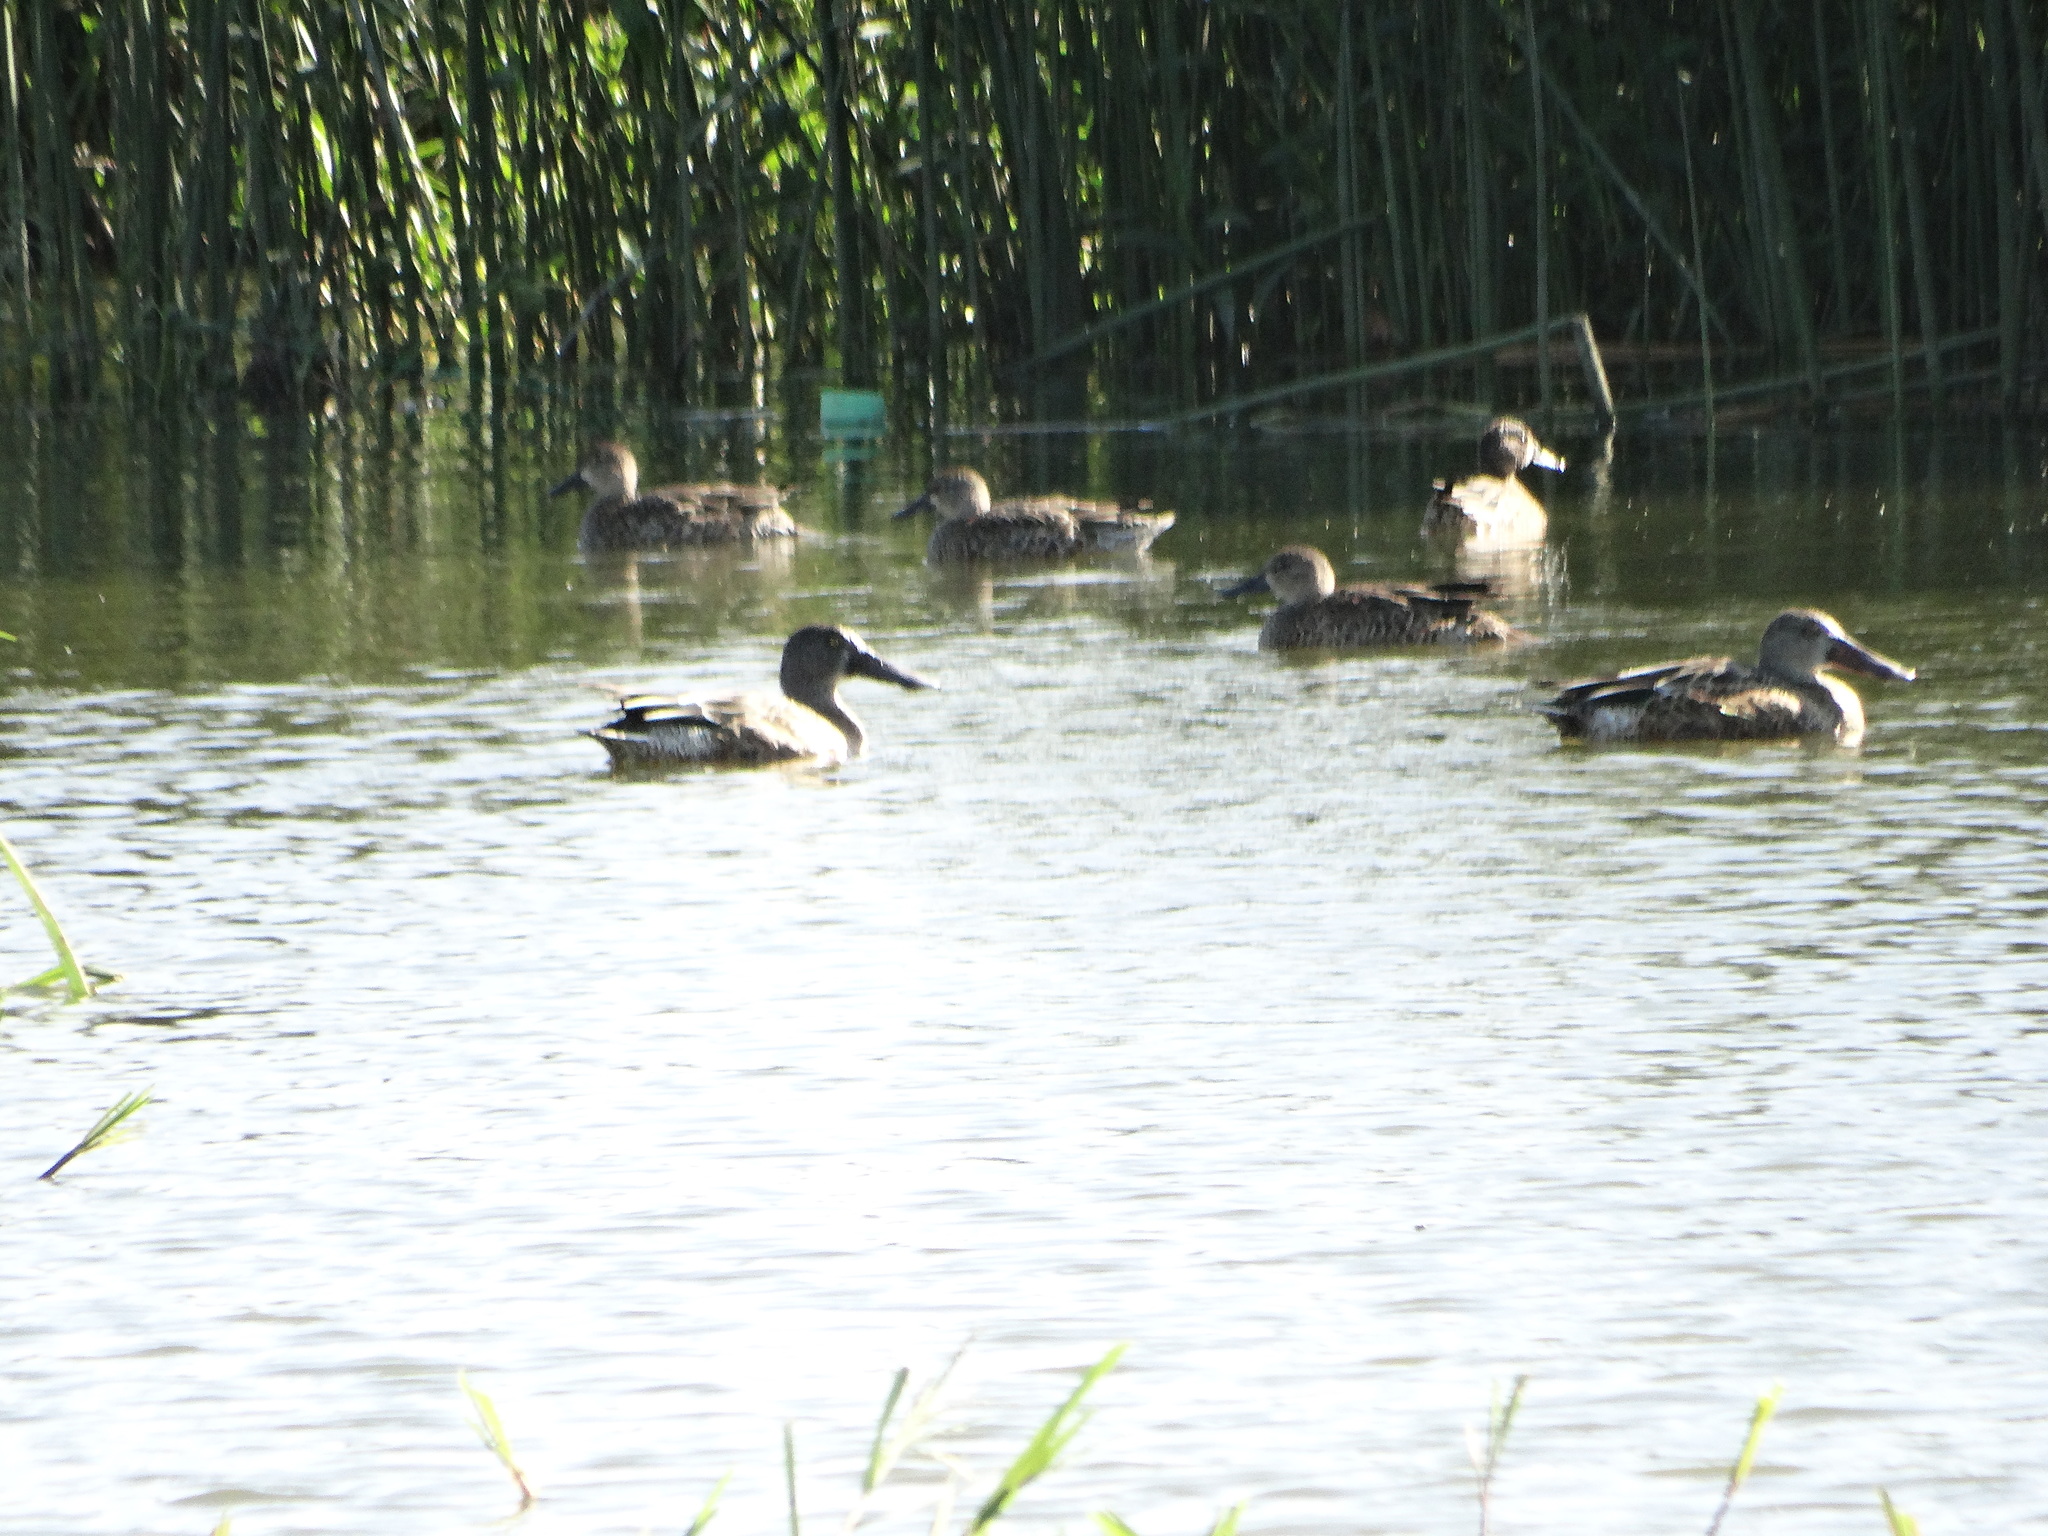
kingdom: Animalia
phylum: Chordata
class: Aves
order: Anseriformes
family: Anatidae
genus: Spatula
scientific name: Spatula clypeata
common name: Northern shoveler
